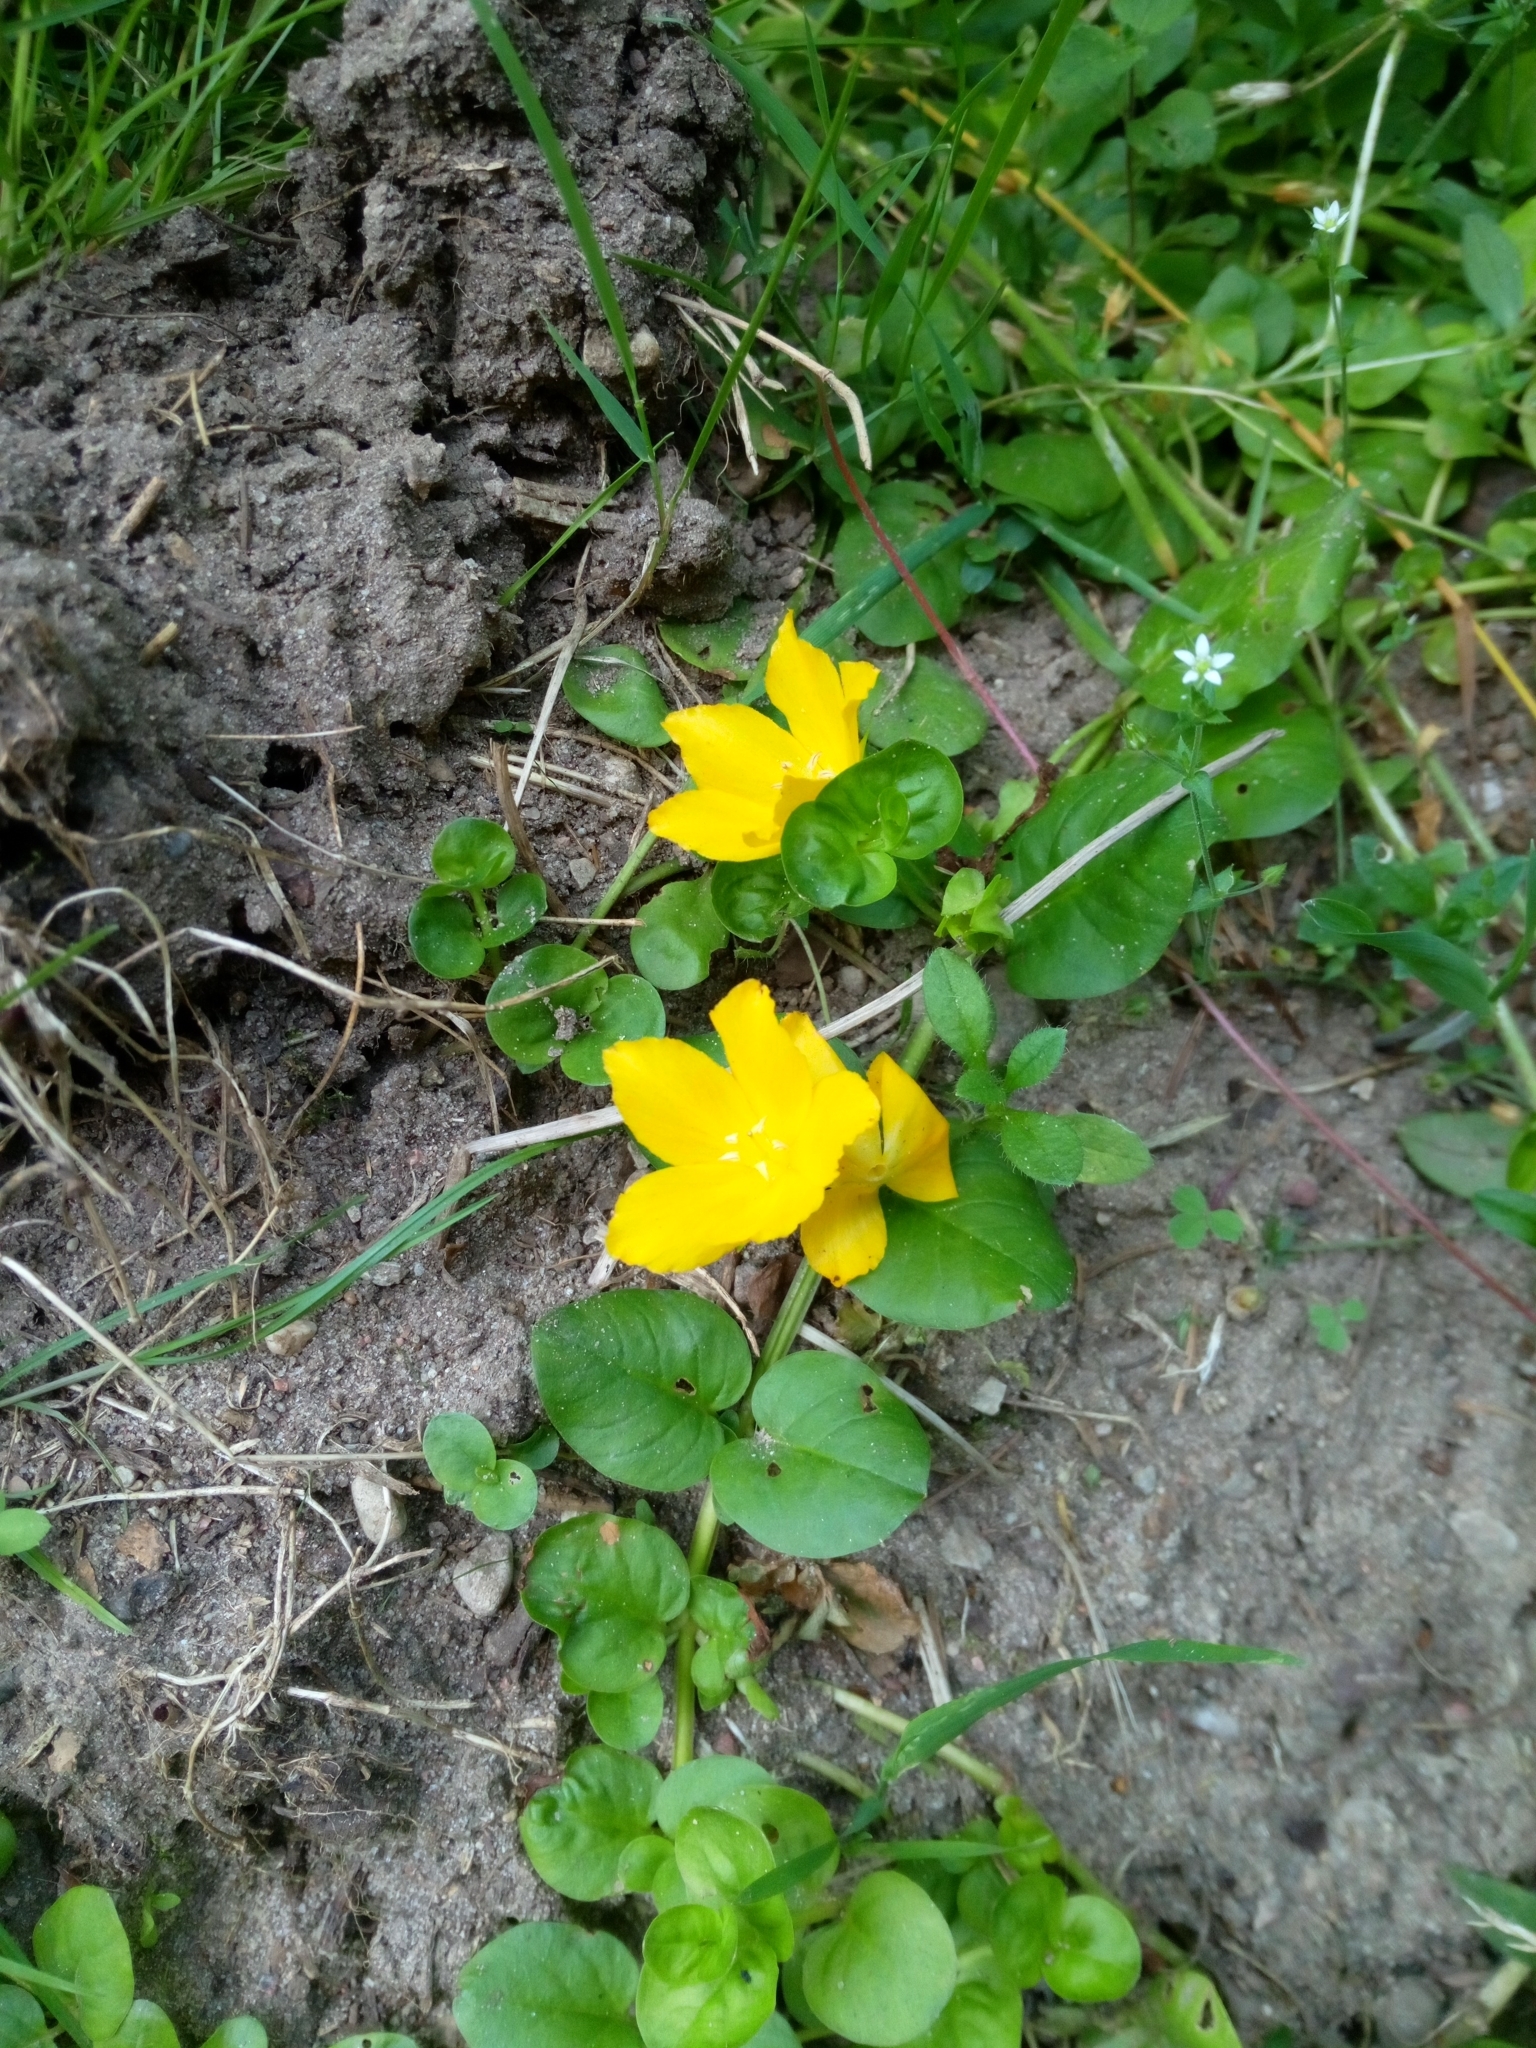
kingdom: Plantae
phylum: Tracheophyta
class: Magnoliopsida
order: Ericales
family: Primulaceae
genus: Lysimachia
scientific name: Lysimachia nummularia
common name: Moneywort
